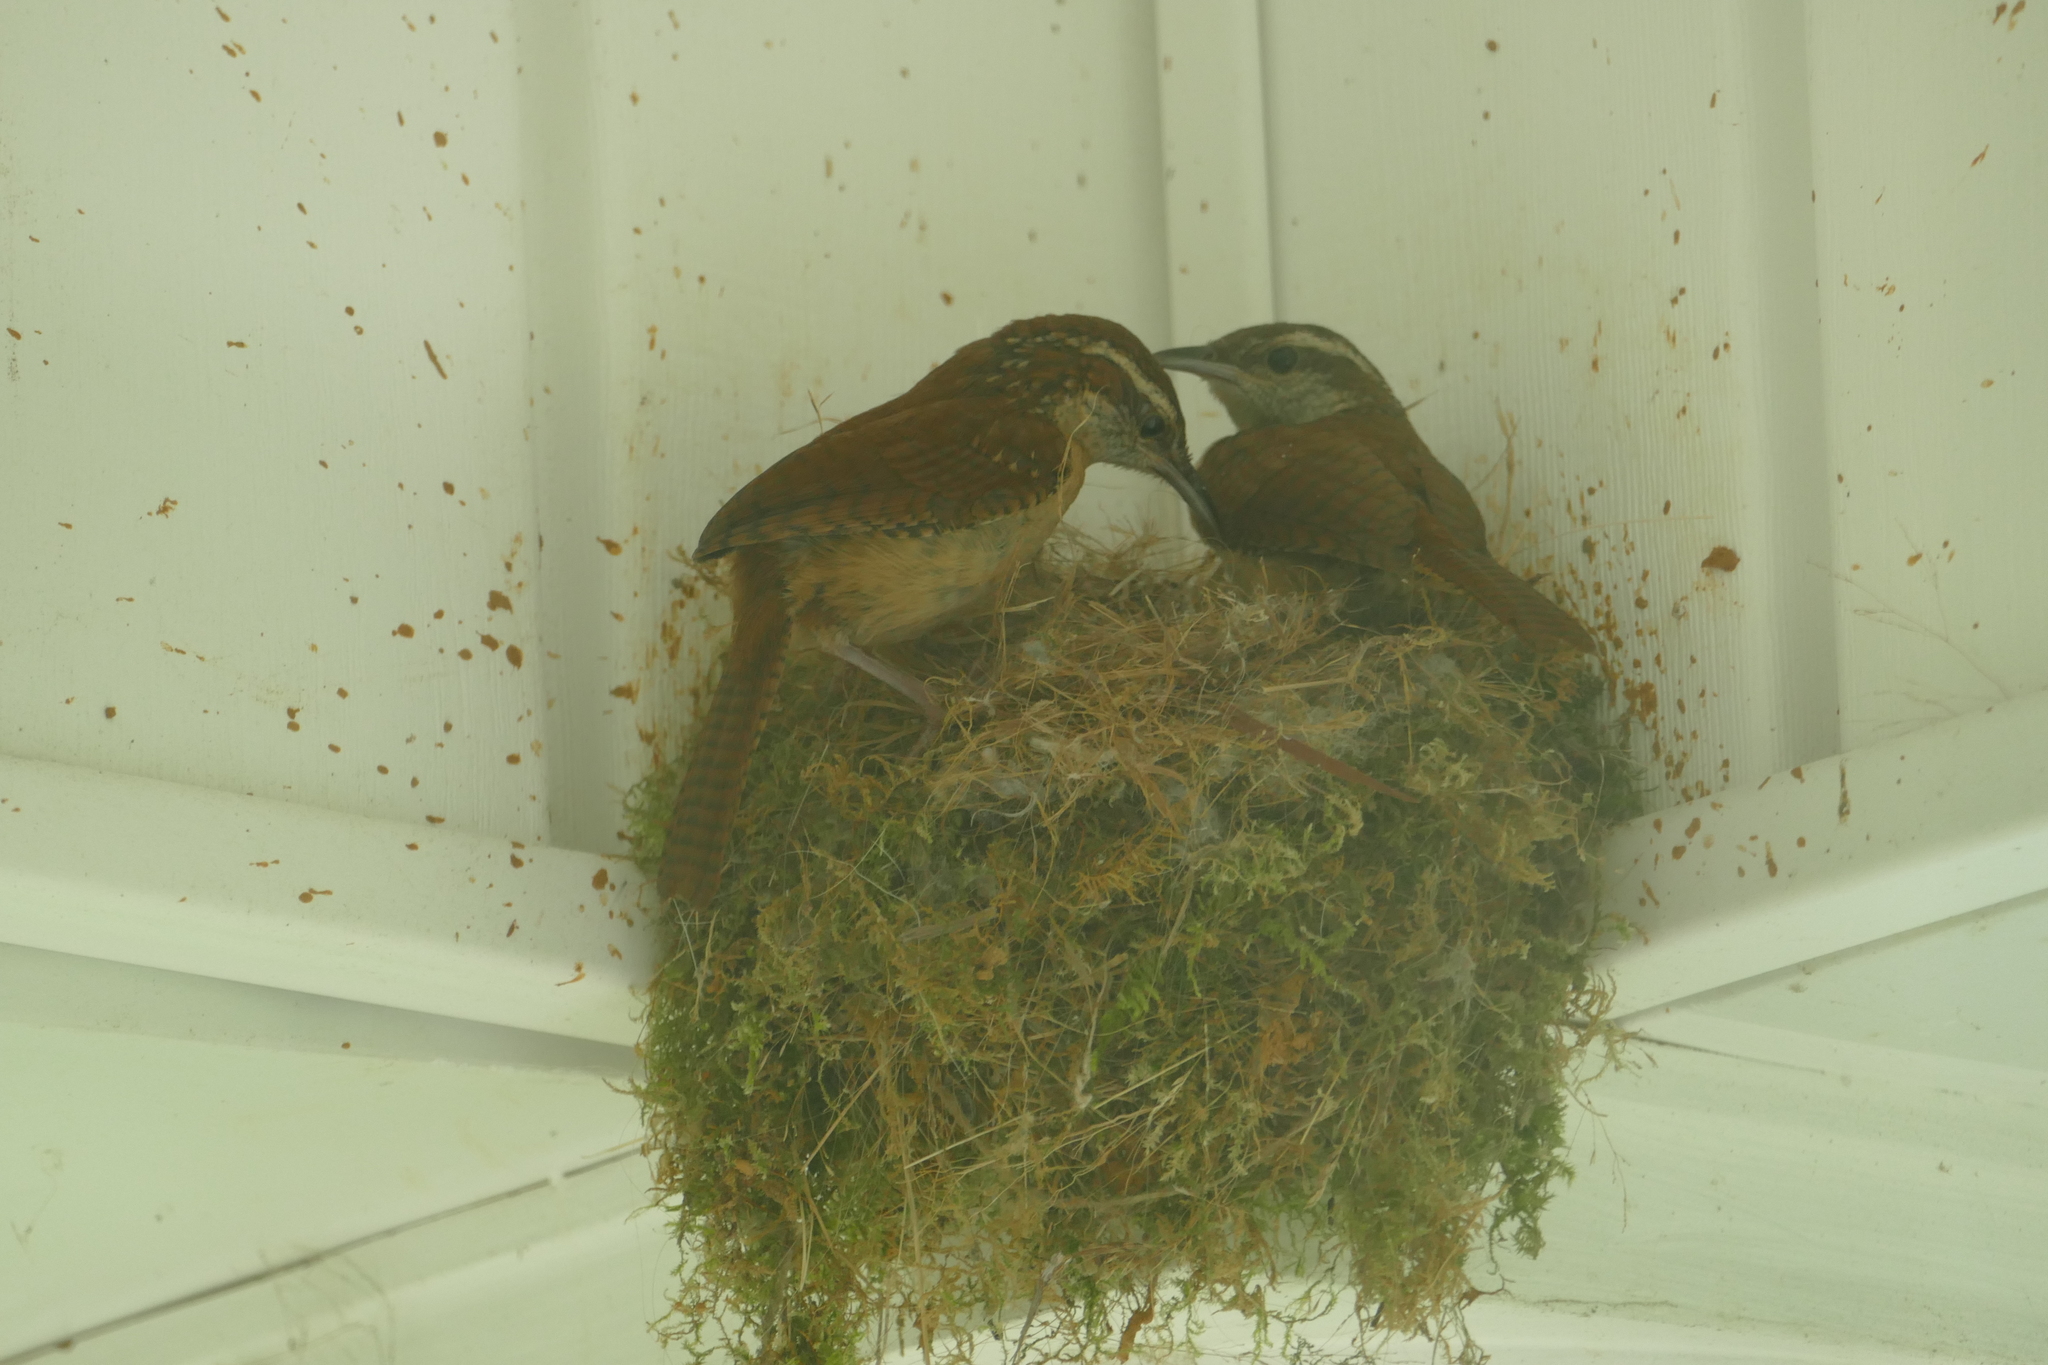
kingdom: Animalia
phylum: Chordata
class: Aves
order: Passeriformes
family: Troglodytidae
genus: Thryothorus
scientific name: Thryothorus ludovicianus
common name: Carolina wren
